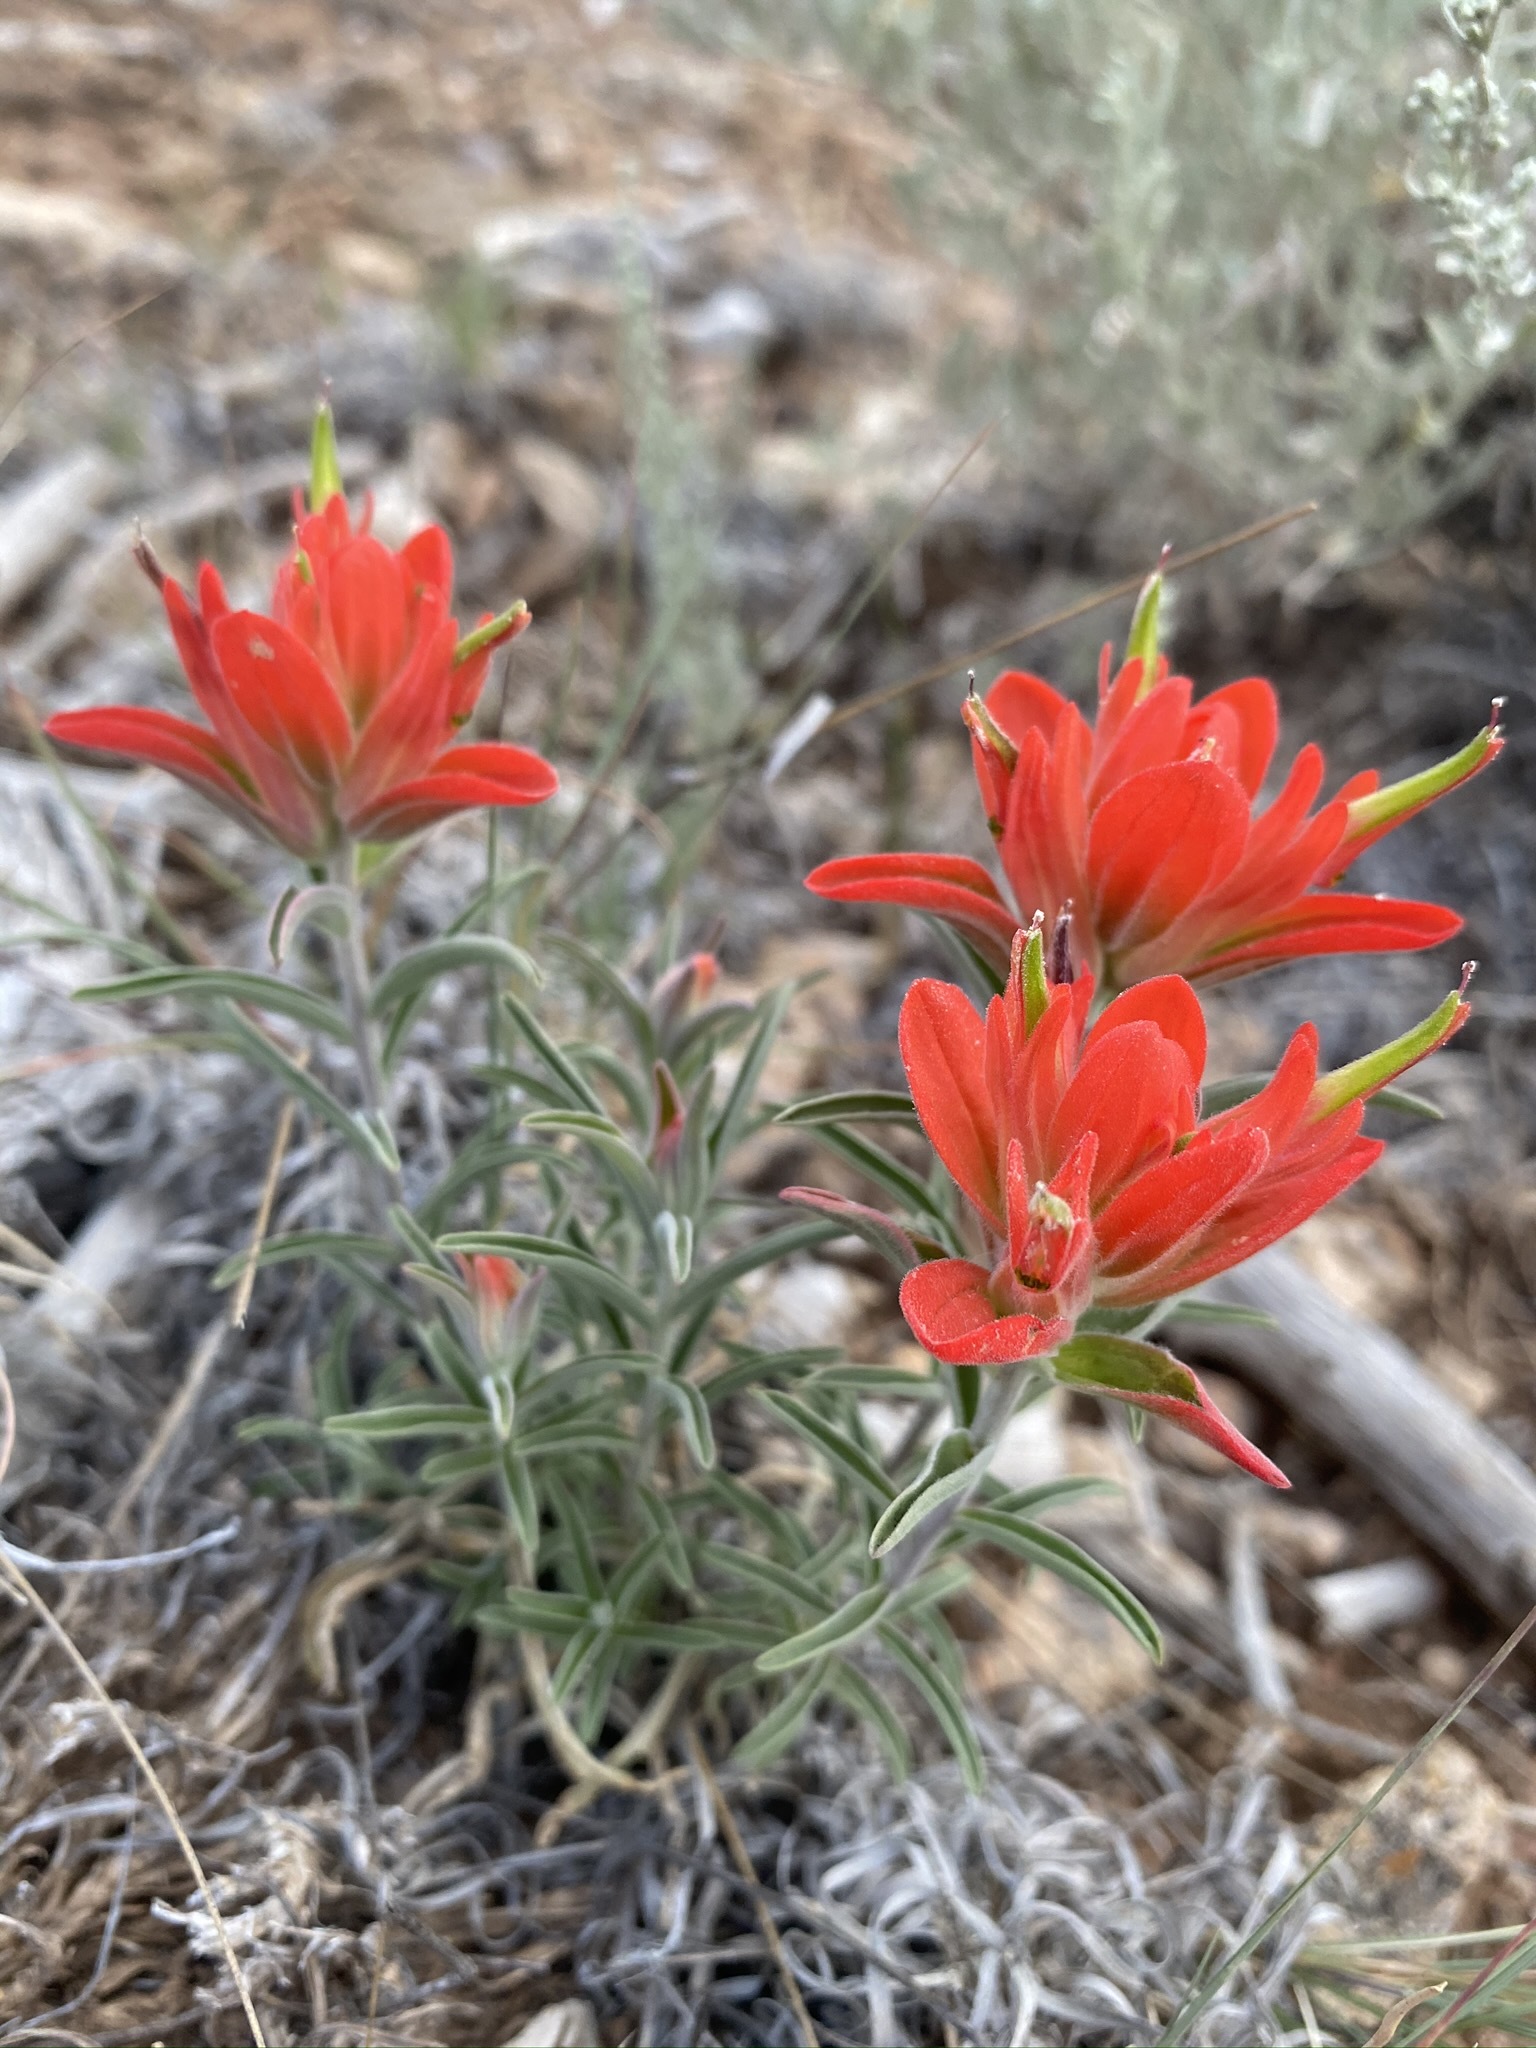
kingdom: Plantae
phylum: Tracheophyta
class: Magnoliopsida
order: Lamiales
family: Orobanchaceae
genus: Castilleja
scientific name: Castilleja integra
